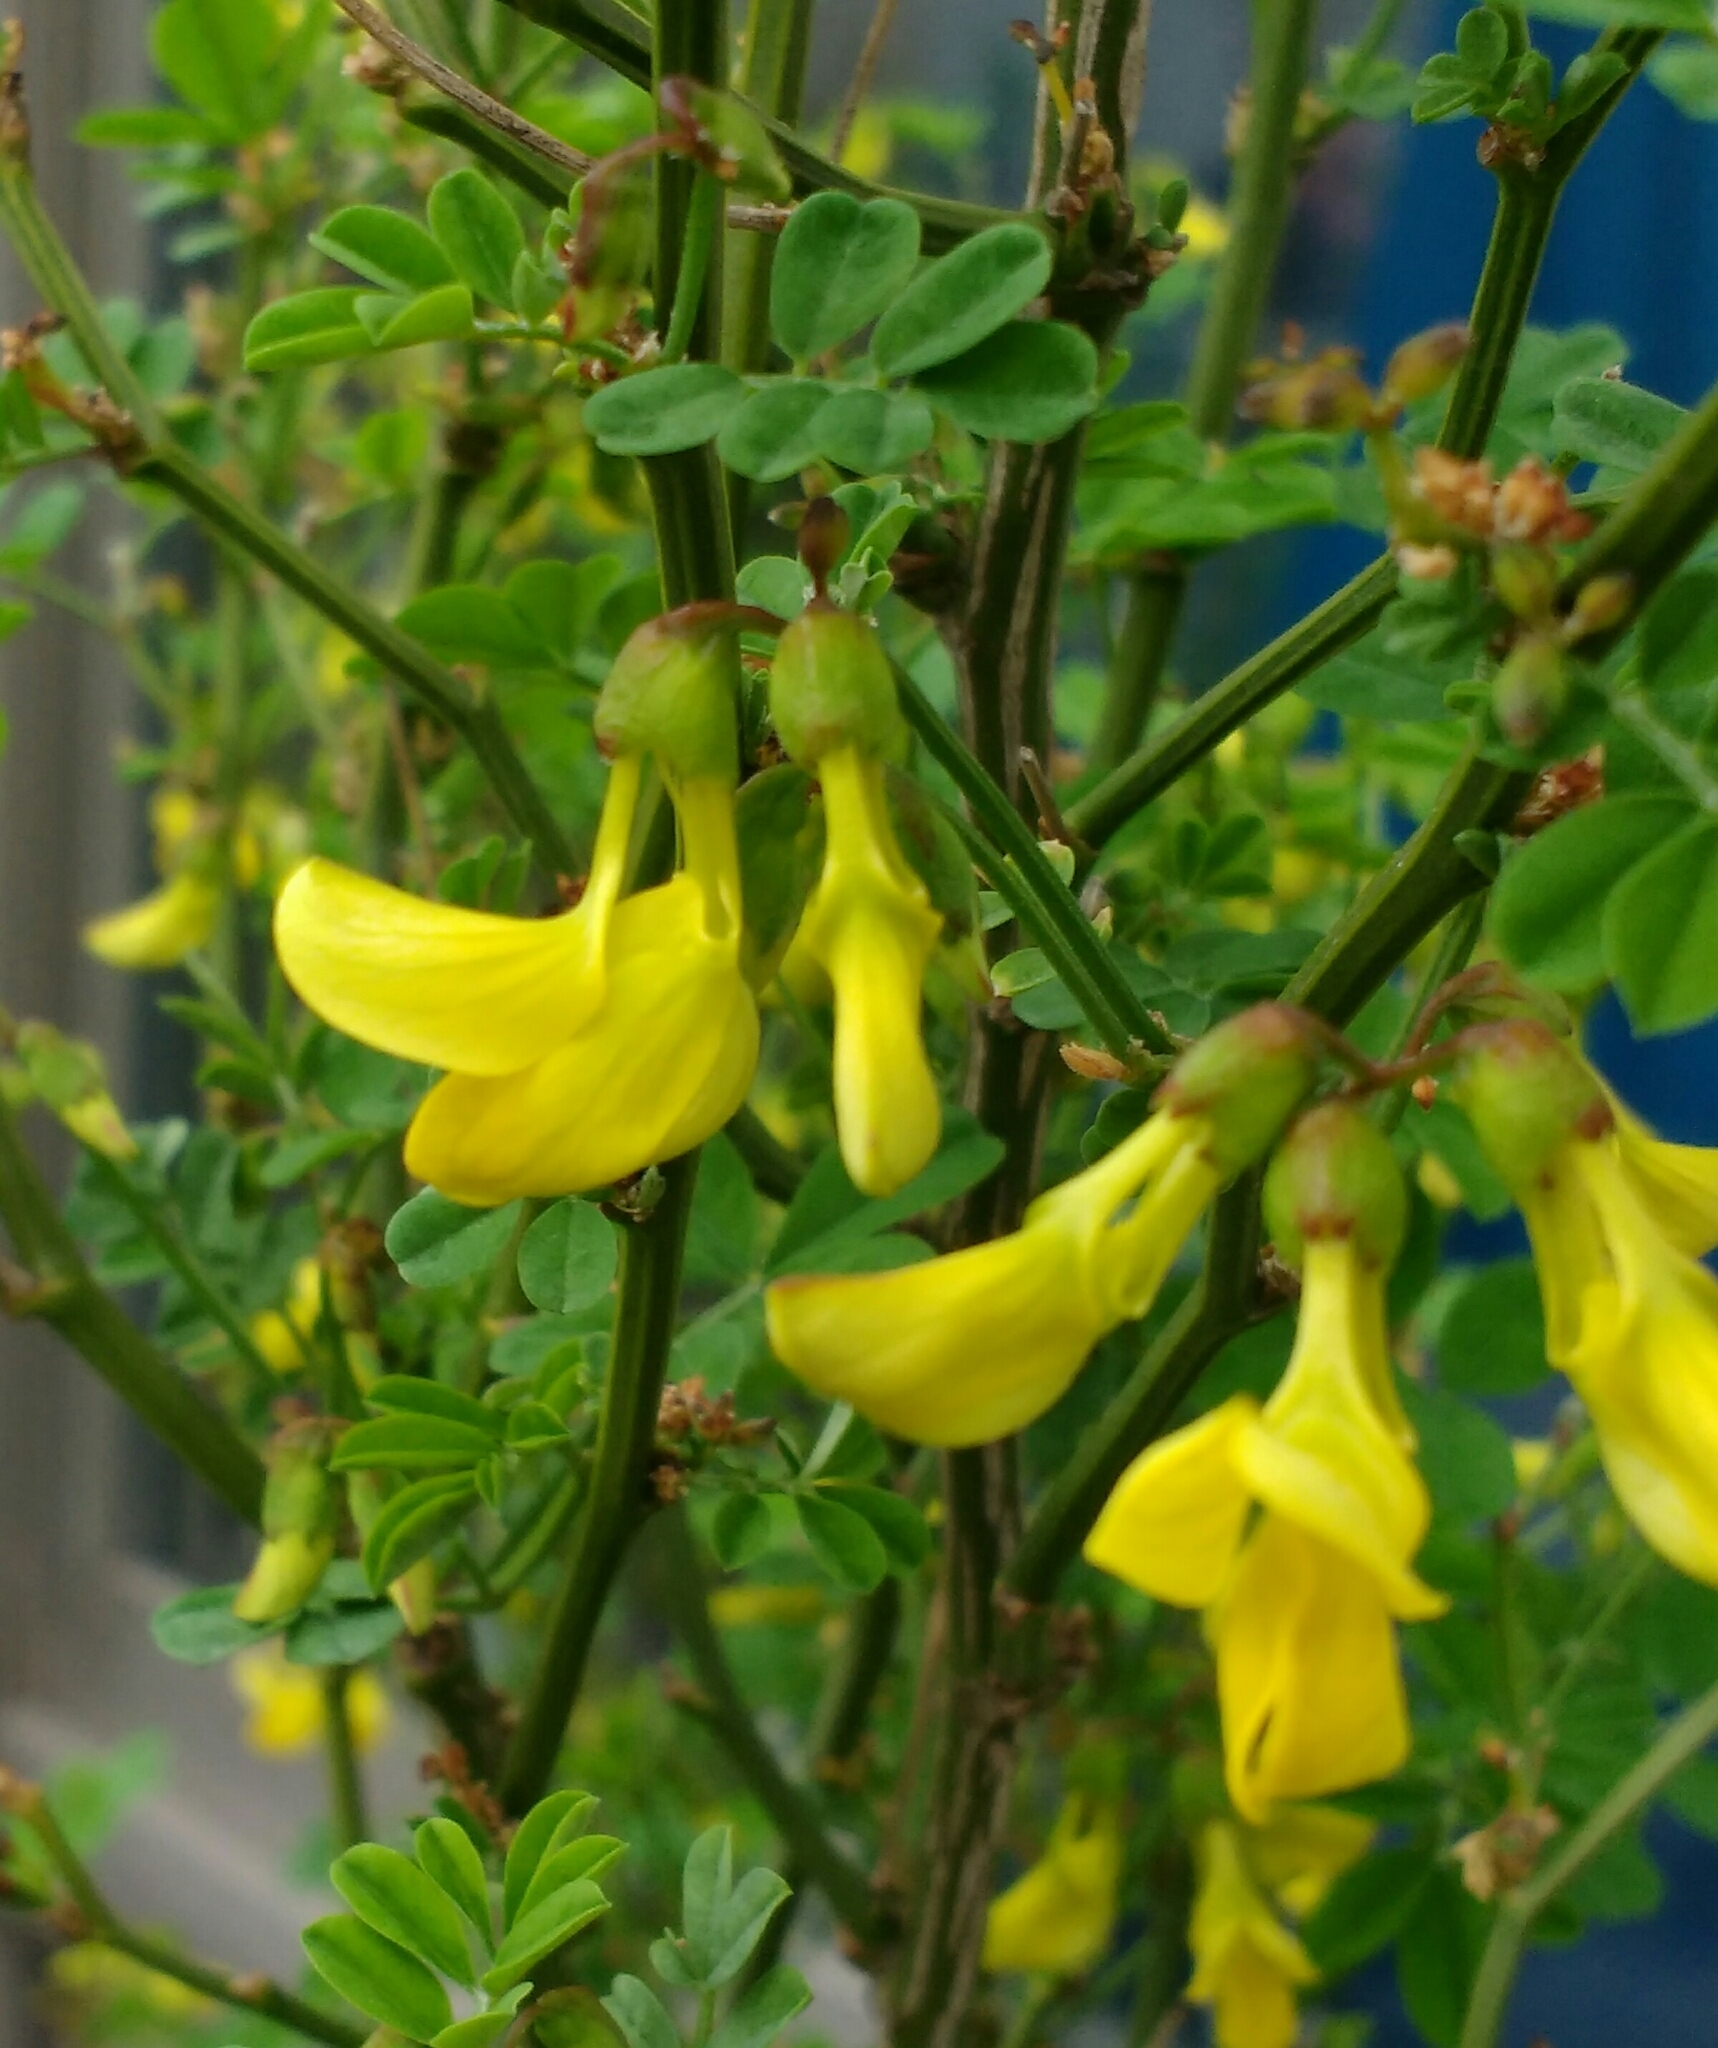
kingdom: Plantae
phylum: Tracheophyta
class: Magnoliopsida
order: Fabales
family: Fabaceae
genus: Hippocrepis
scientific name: Hippocrepis emerus
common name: Scorpion senna
